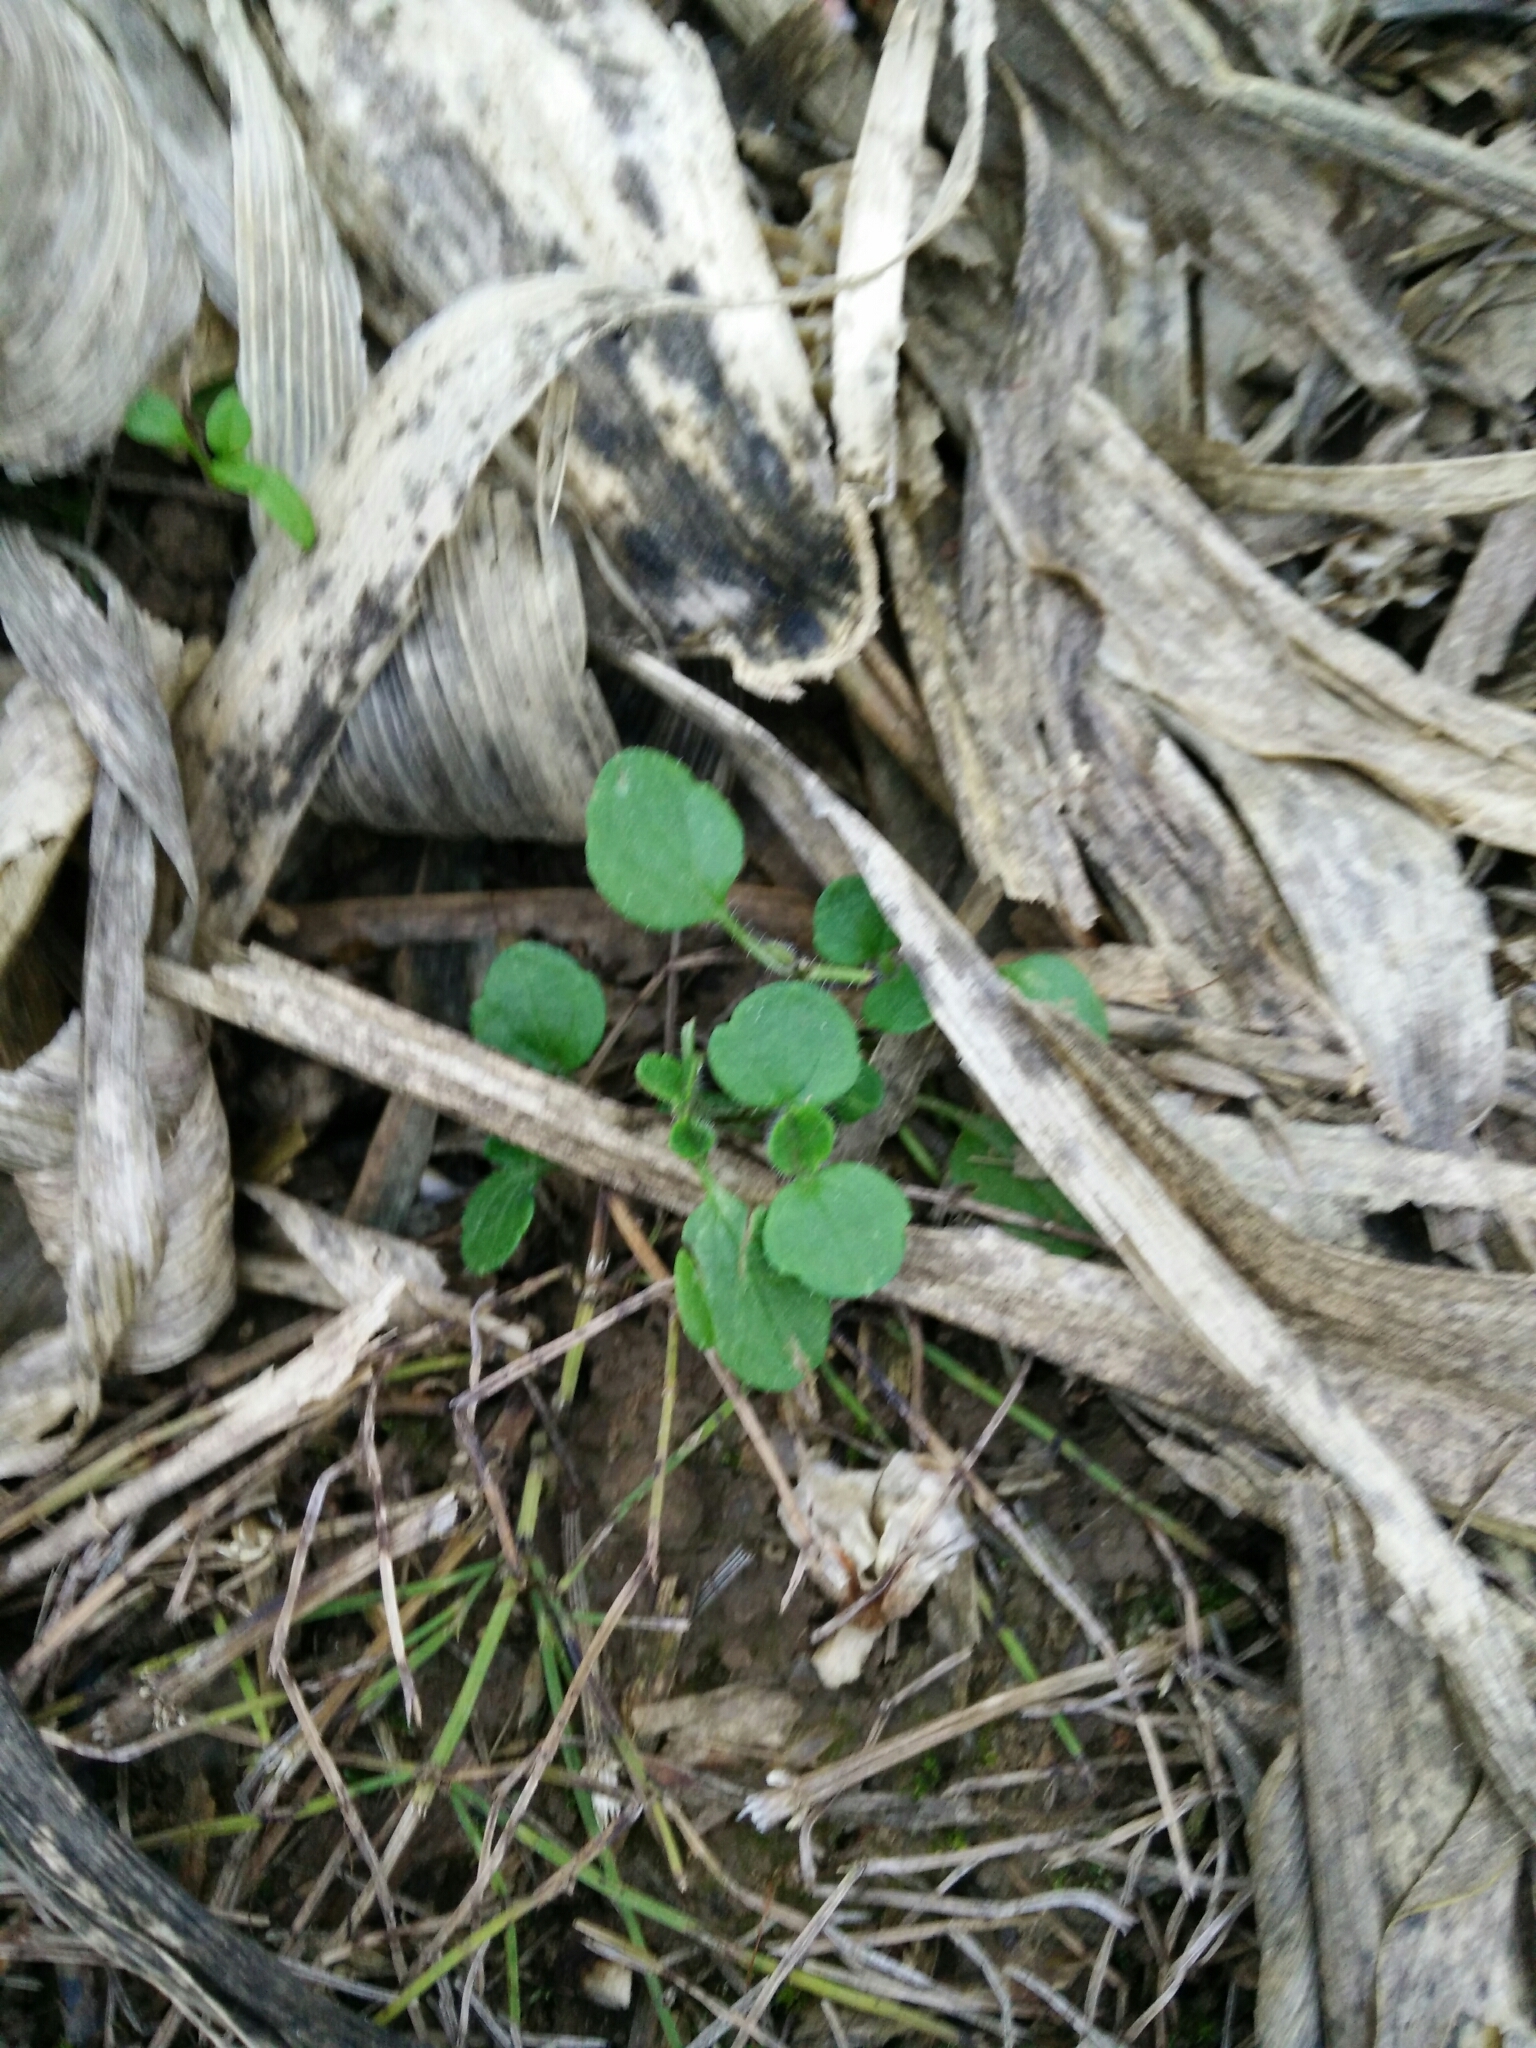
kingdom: Plantae
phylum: Tracheophyta
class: Magnoliopsida
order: Lamiales
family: Plantaginaceae
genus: Veronica
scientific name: Veronica hederifolia
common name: Ivy-leaved speedwell
